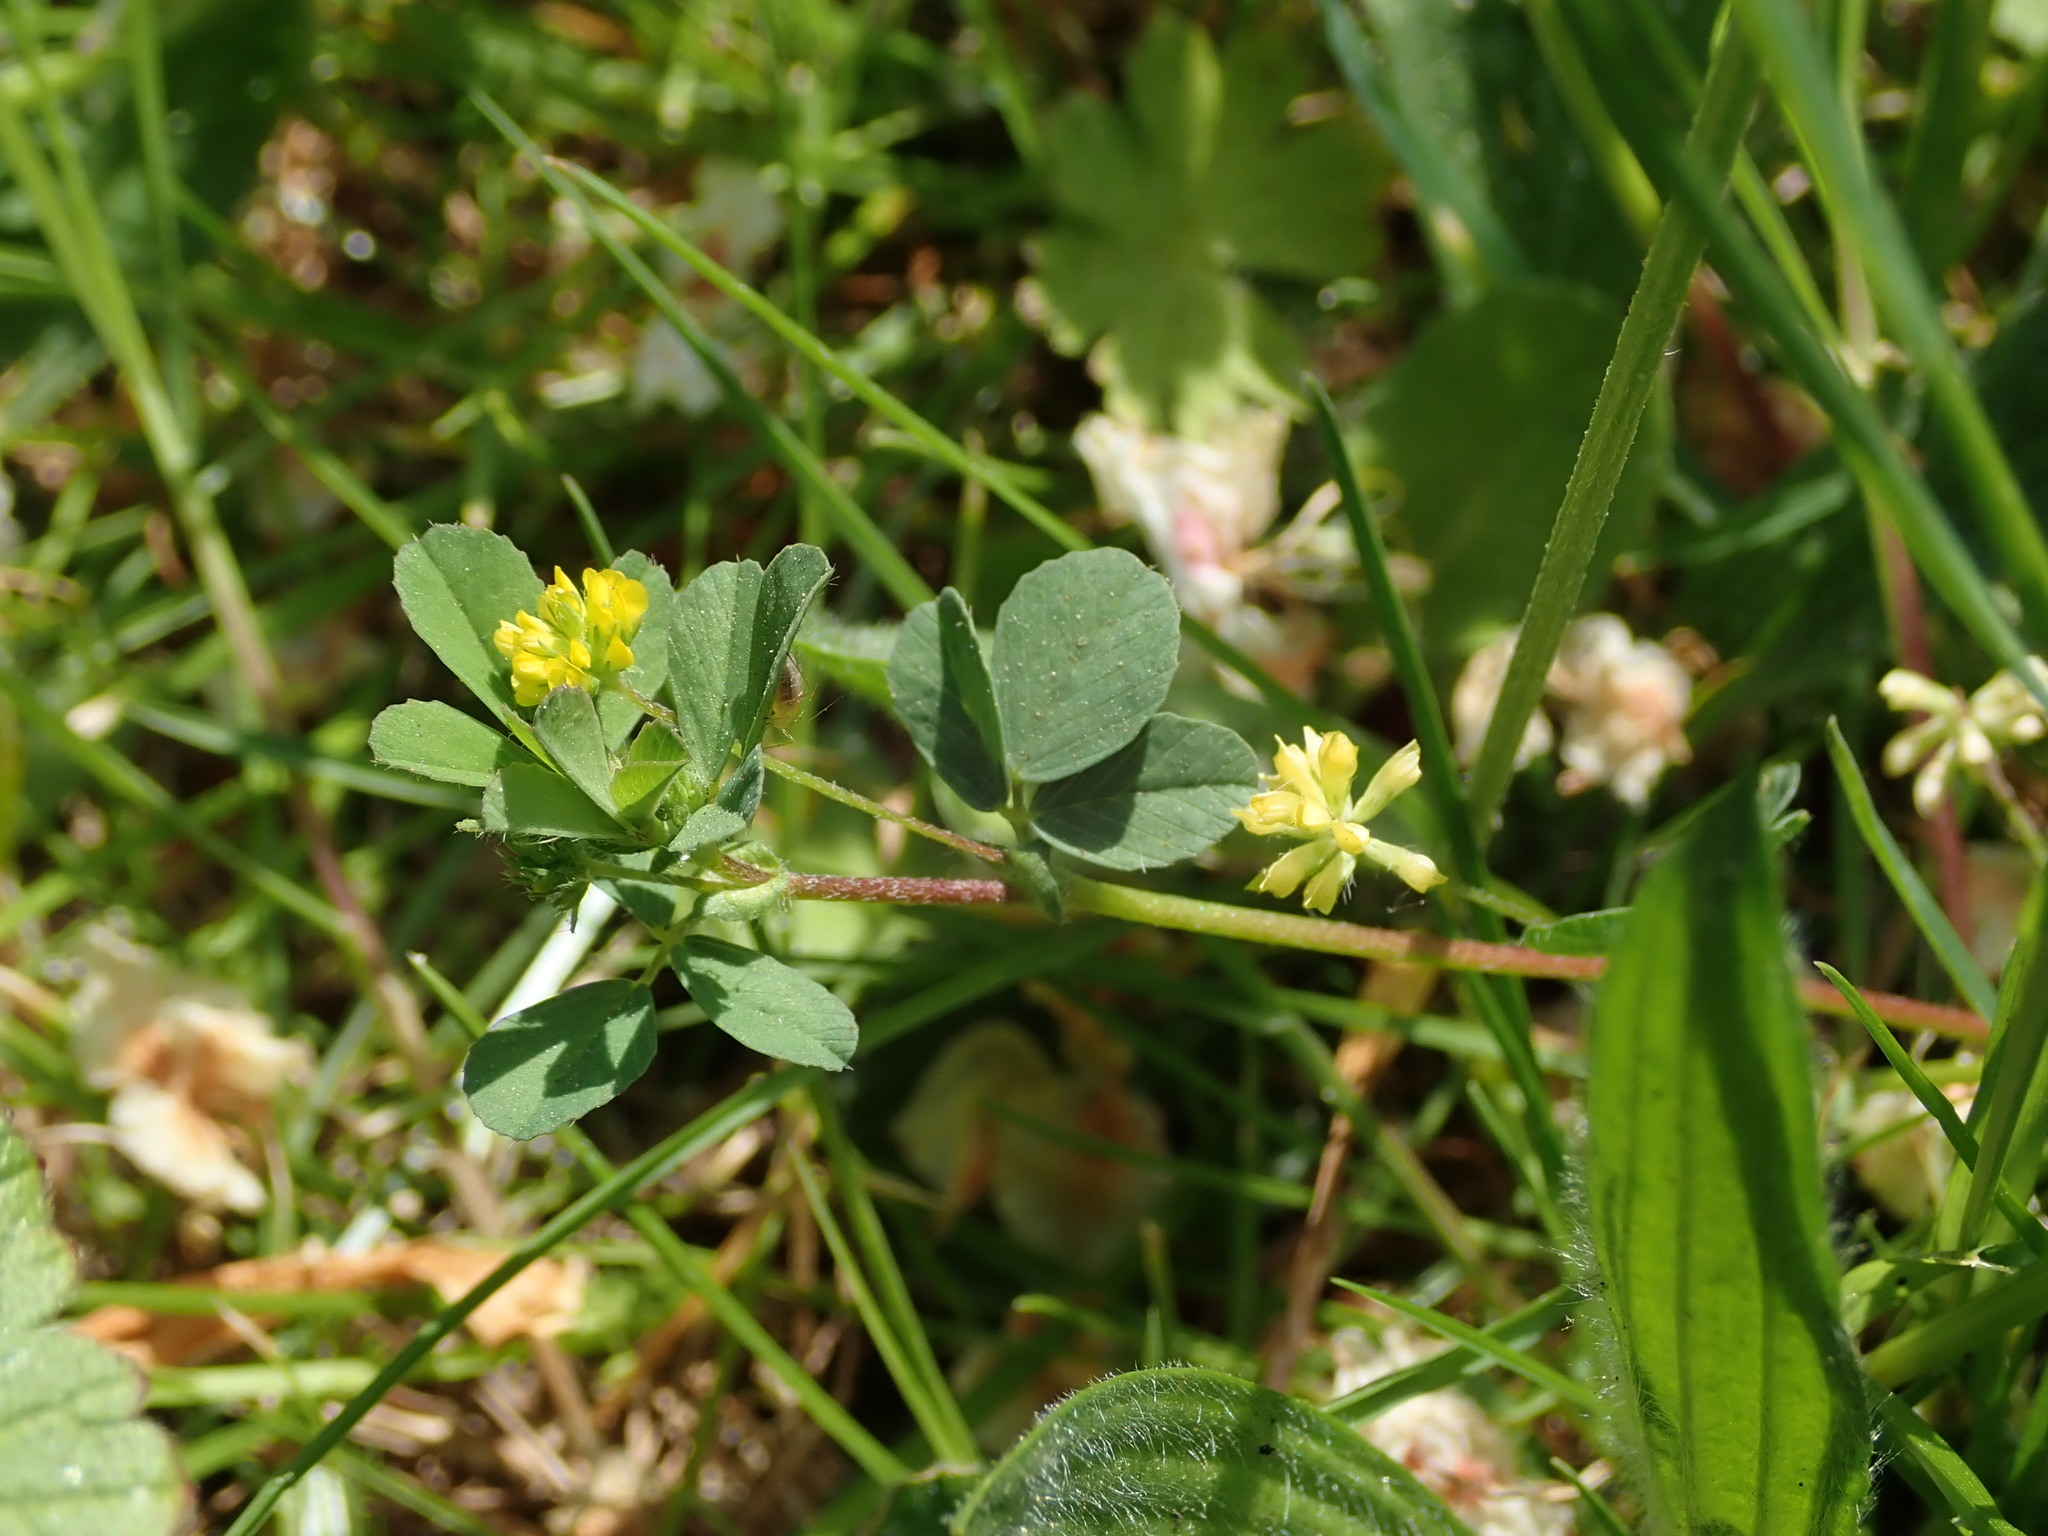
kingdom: Plantae
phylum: Tracheophyta
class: Magnoliopsida
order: Fabales
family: Fabaceae
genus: Trifolium
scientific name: Trifolium dubium
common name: Suckling clover
